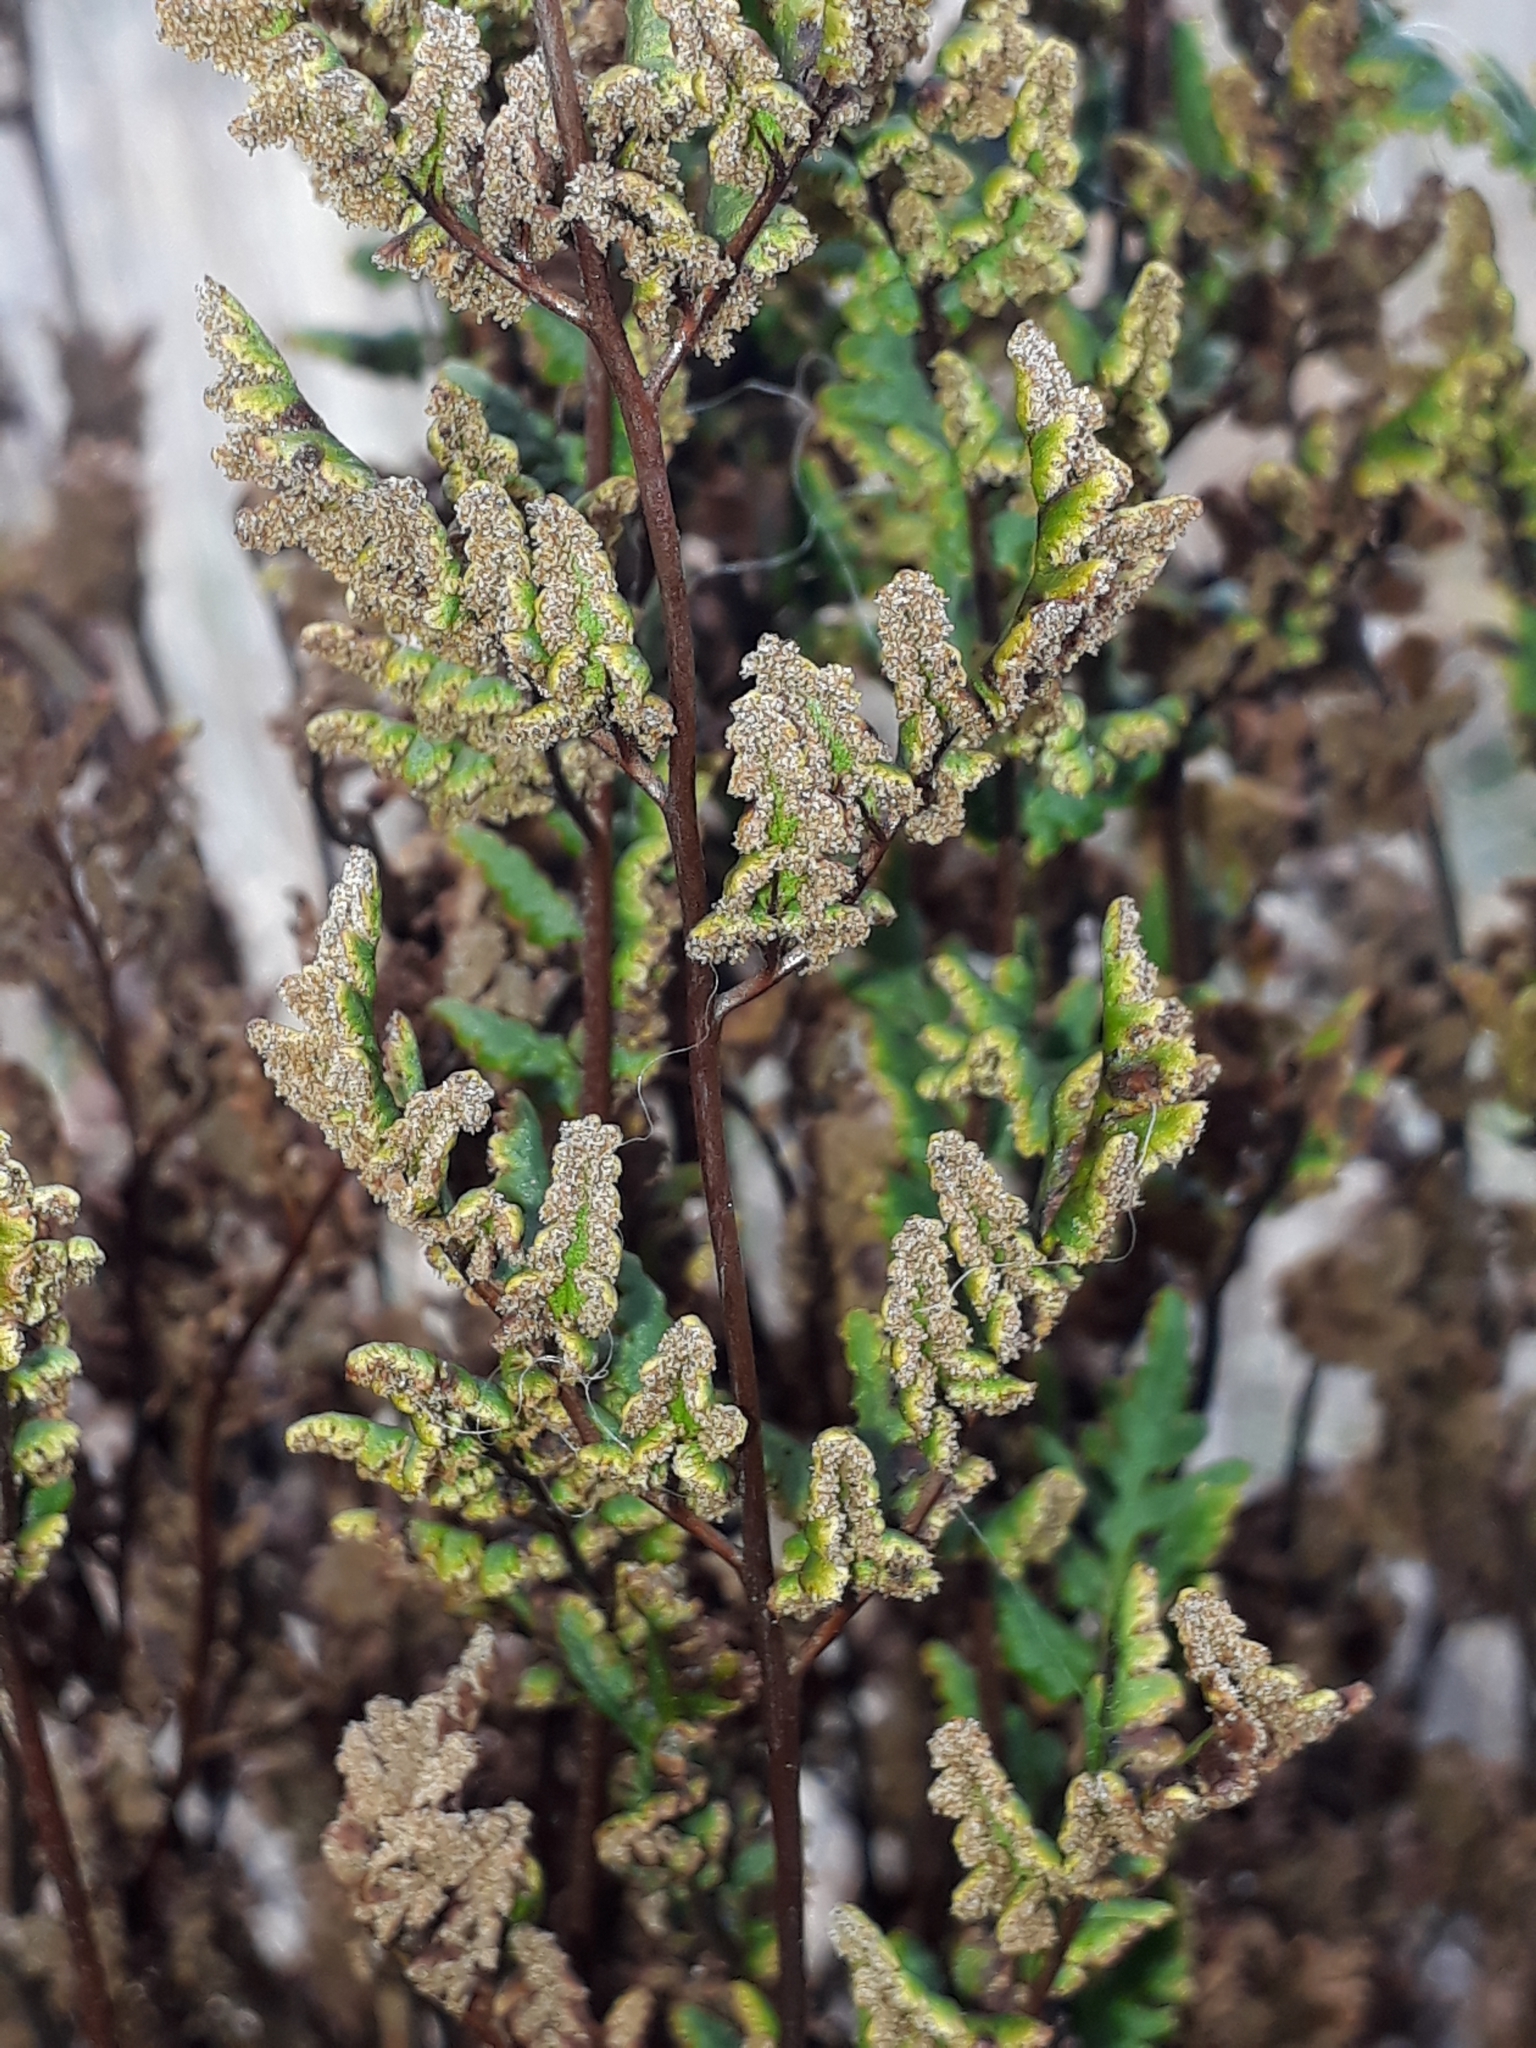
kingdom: Plantae
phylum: Tracheophyta
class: Polypodiopsida
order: Polypodiales
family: Pteridaceae
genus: Cheilanthes
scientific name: Cheilanthes sieberi
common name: Mulga fern
